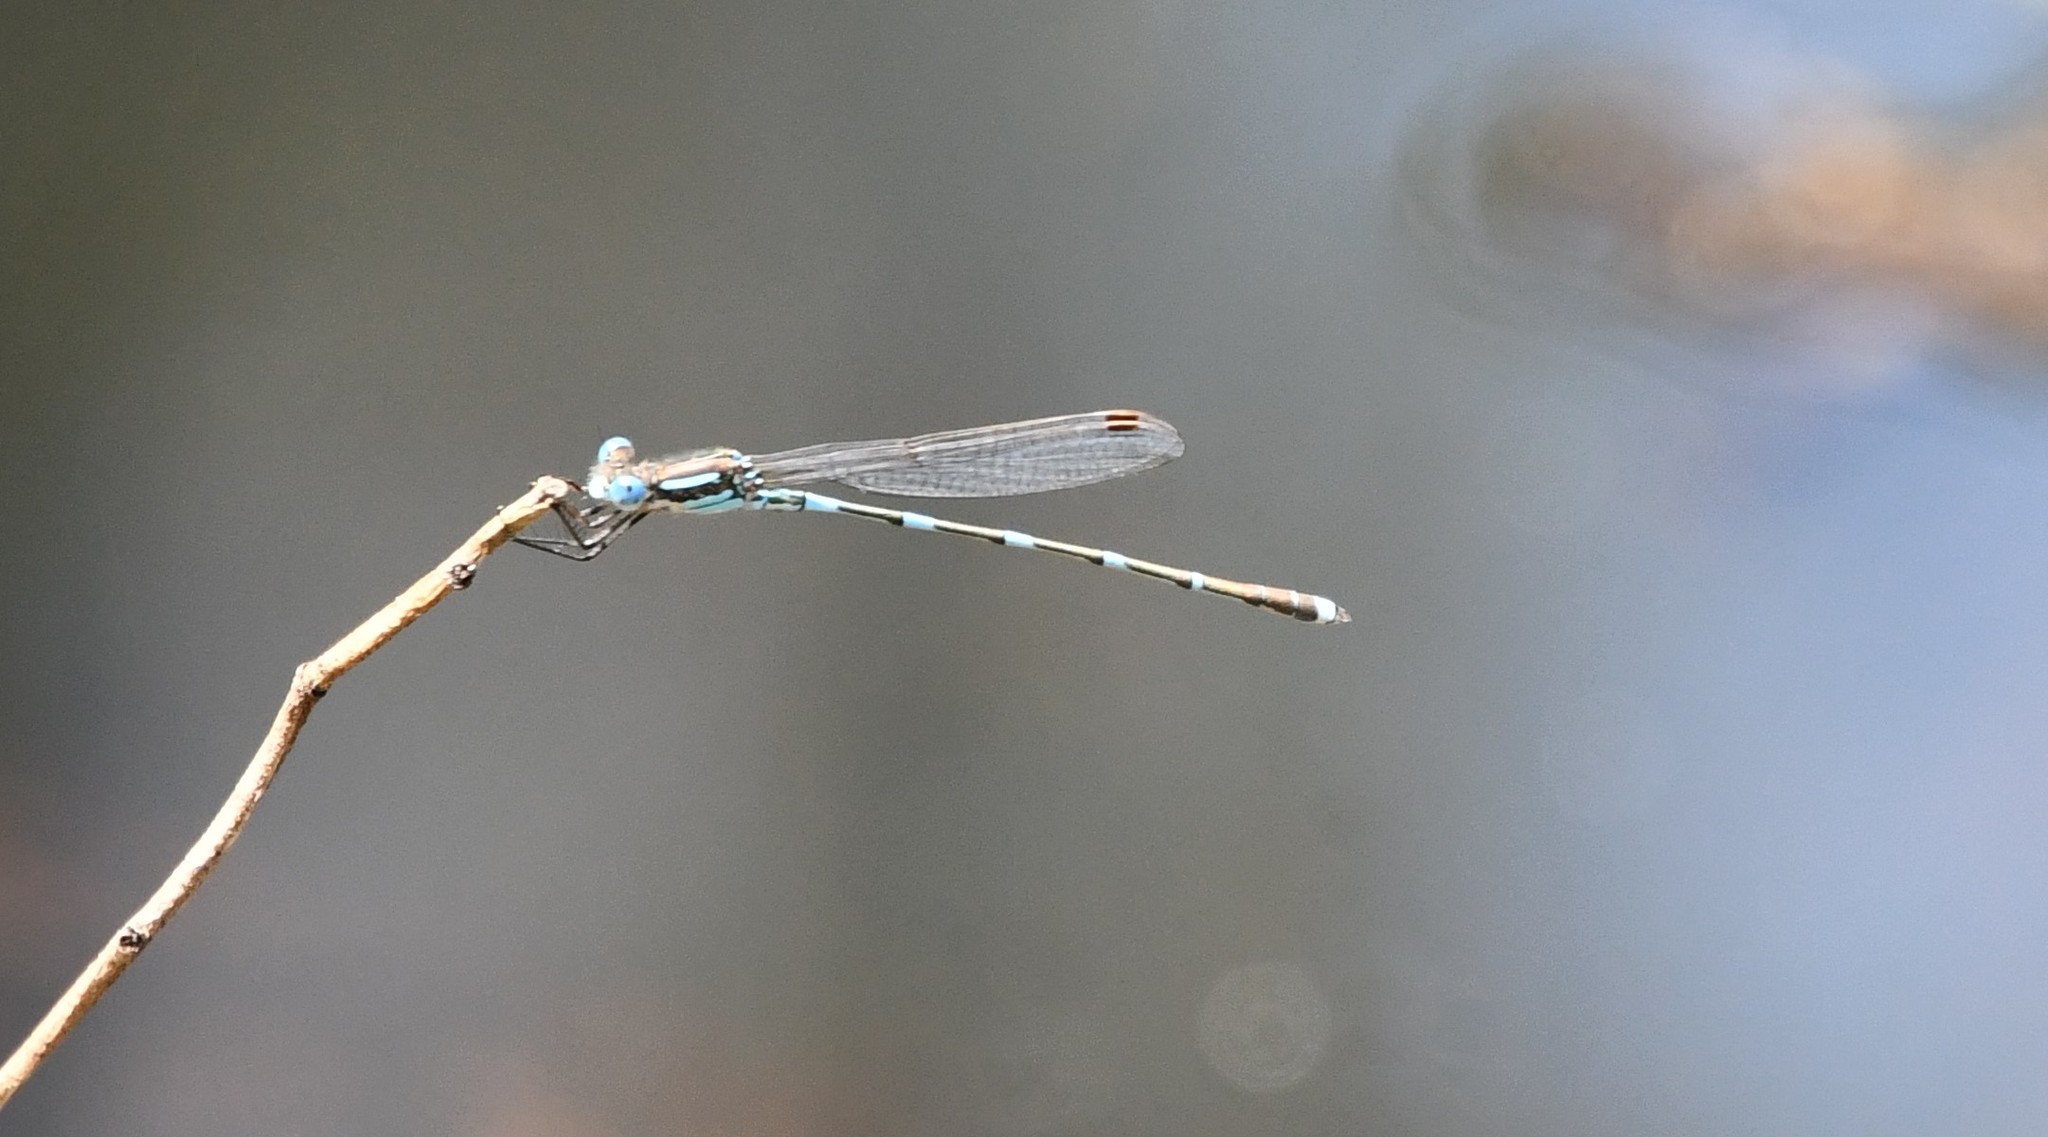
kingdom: Animalia
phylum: Arthropoda
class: Insecta
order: Odonata
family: Lestidae
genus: Austrolestes
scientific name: Austrolestes leda
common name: Wandering ringtail
